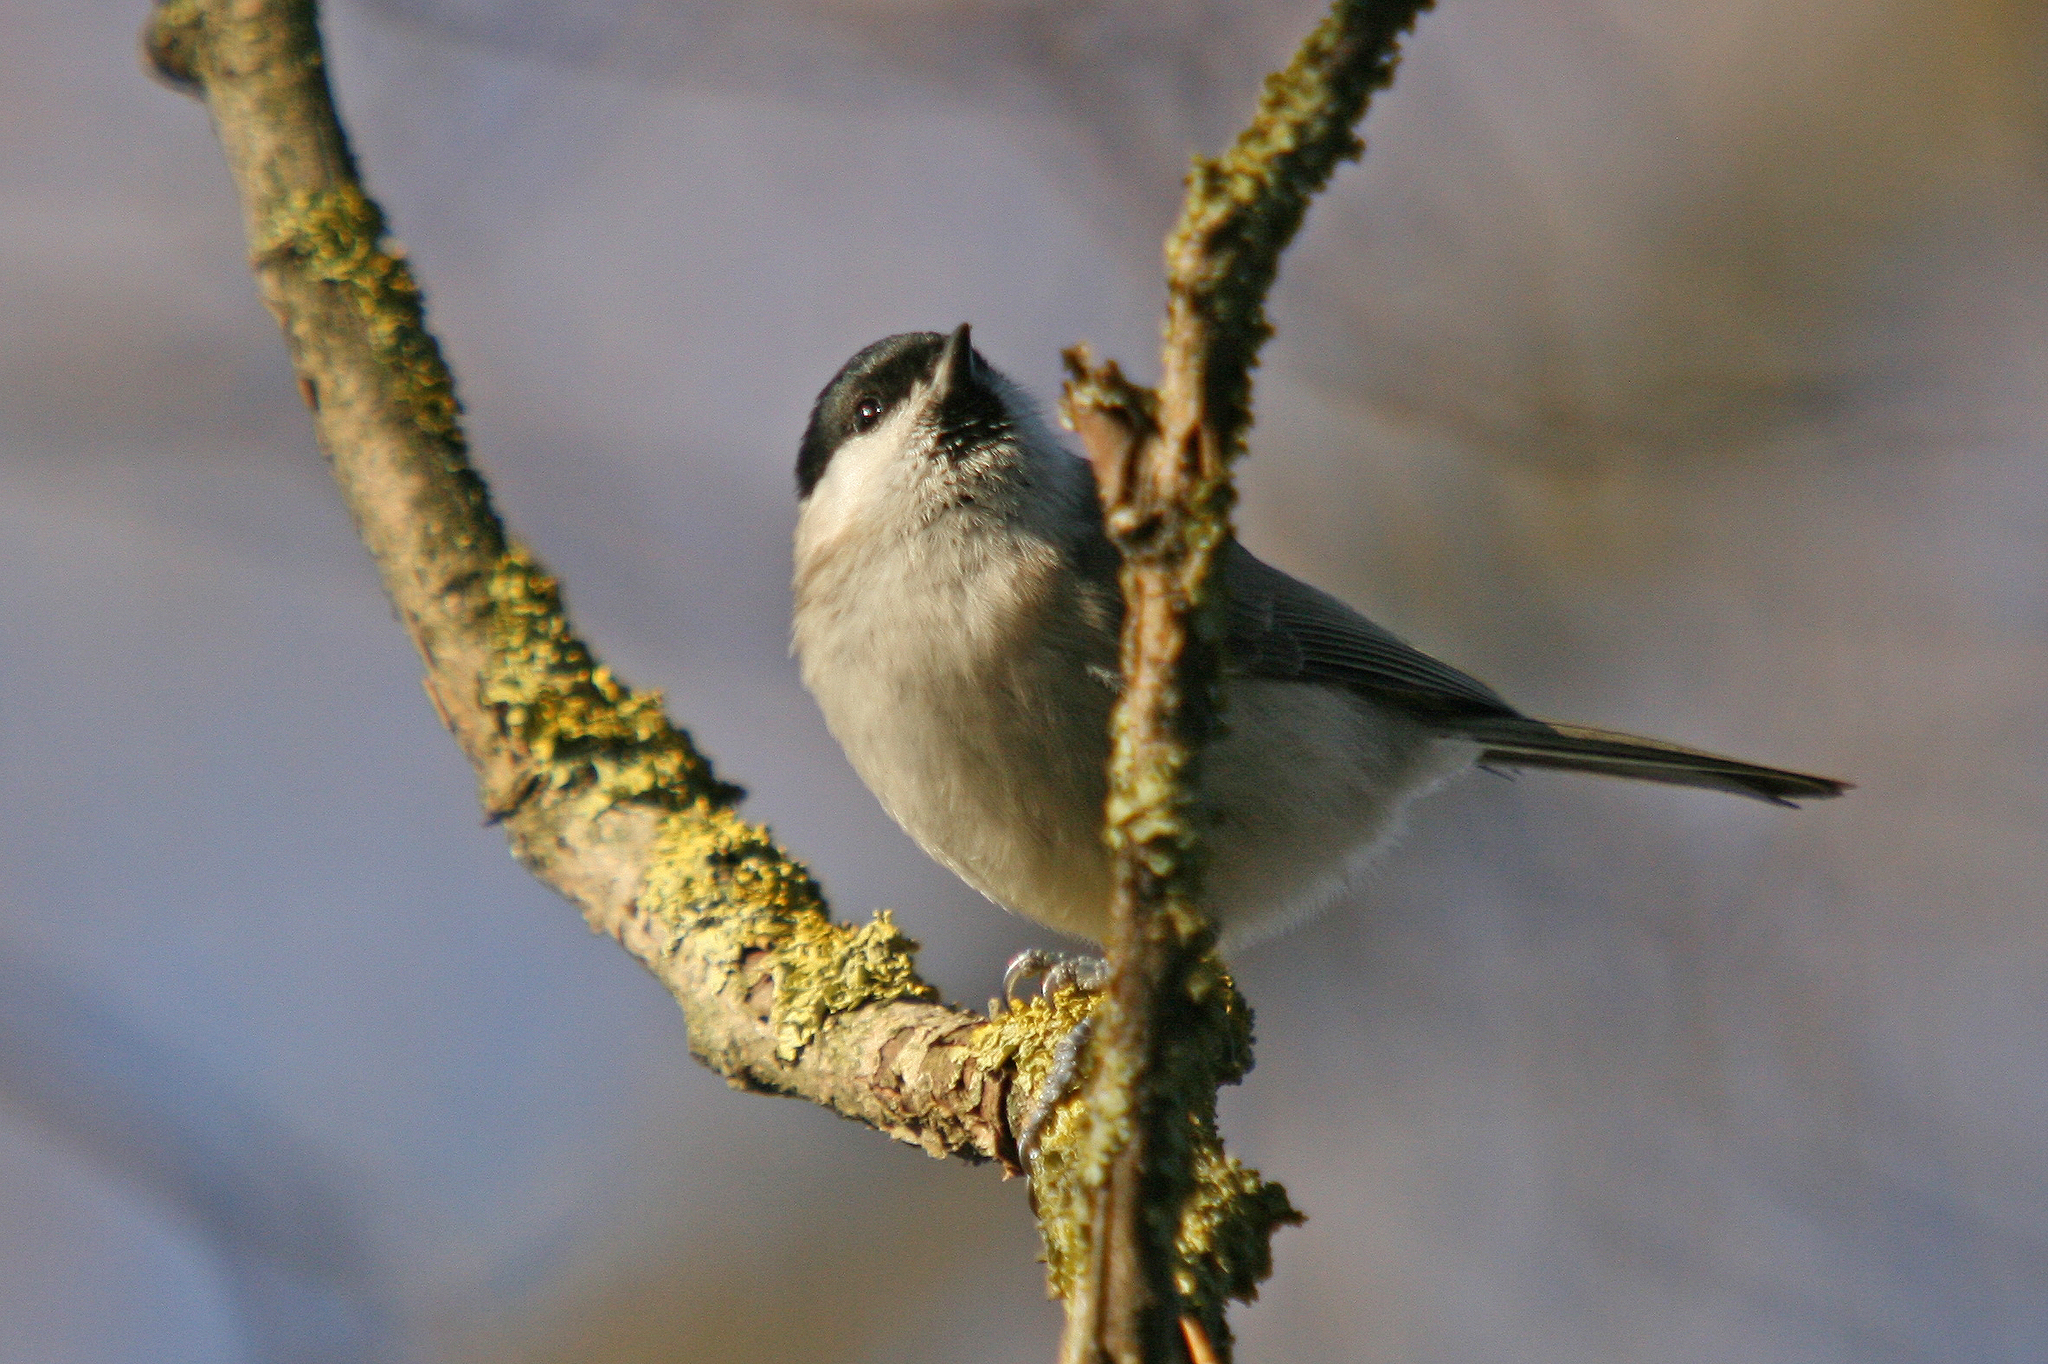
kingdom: Animalia
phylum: Chordata
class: Aves
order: Passeriformes
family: Paridae
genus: Poecile
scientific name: Poecile palustris
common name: Marsh tit
